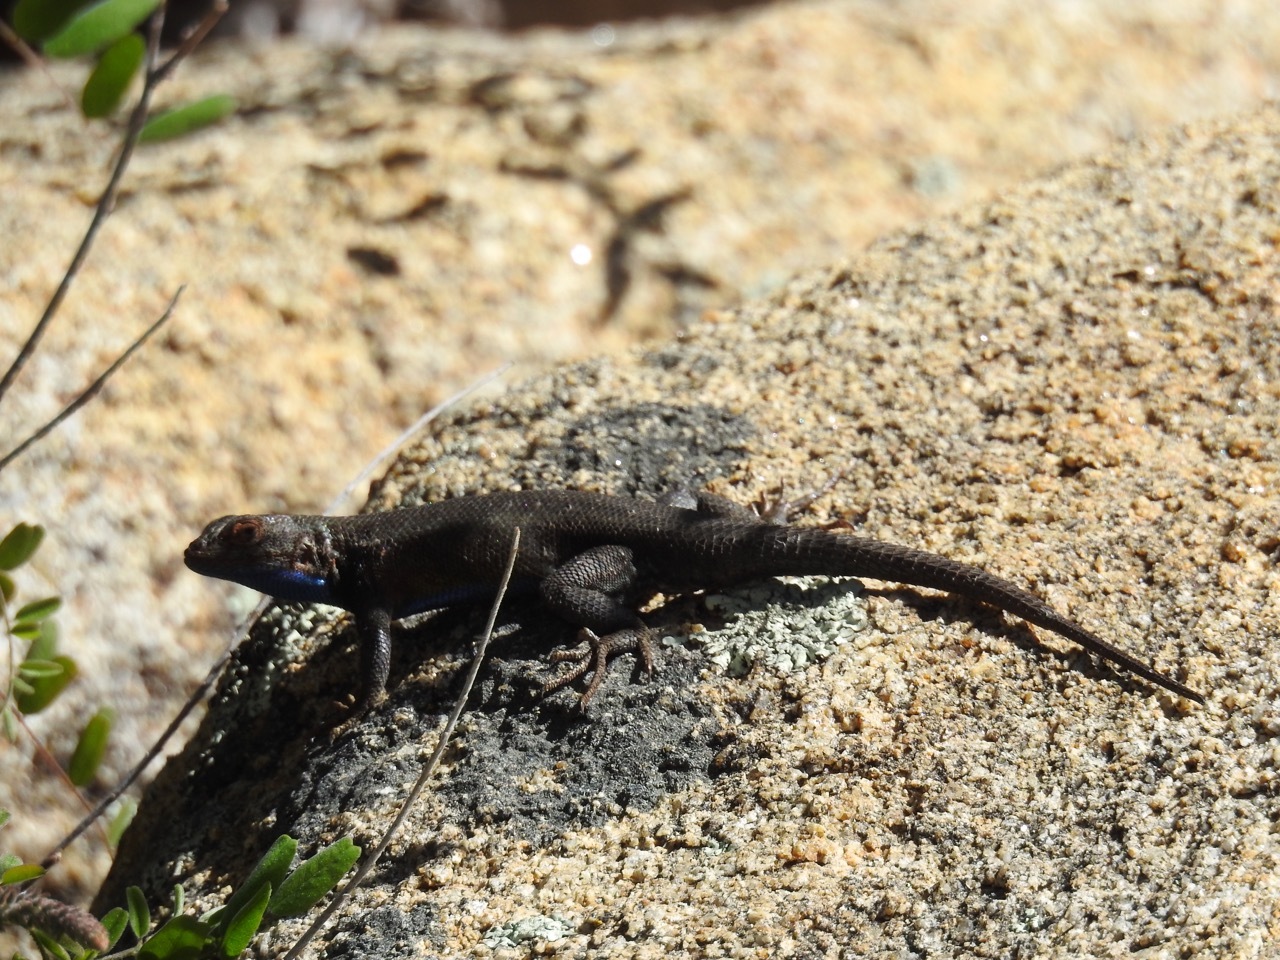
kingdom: Animalia
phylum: Chordata
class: Squamata
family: Phrynosomatidae
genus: Sceloporus
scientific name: Sceloporus graciosus
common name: Sagebrush lizard
